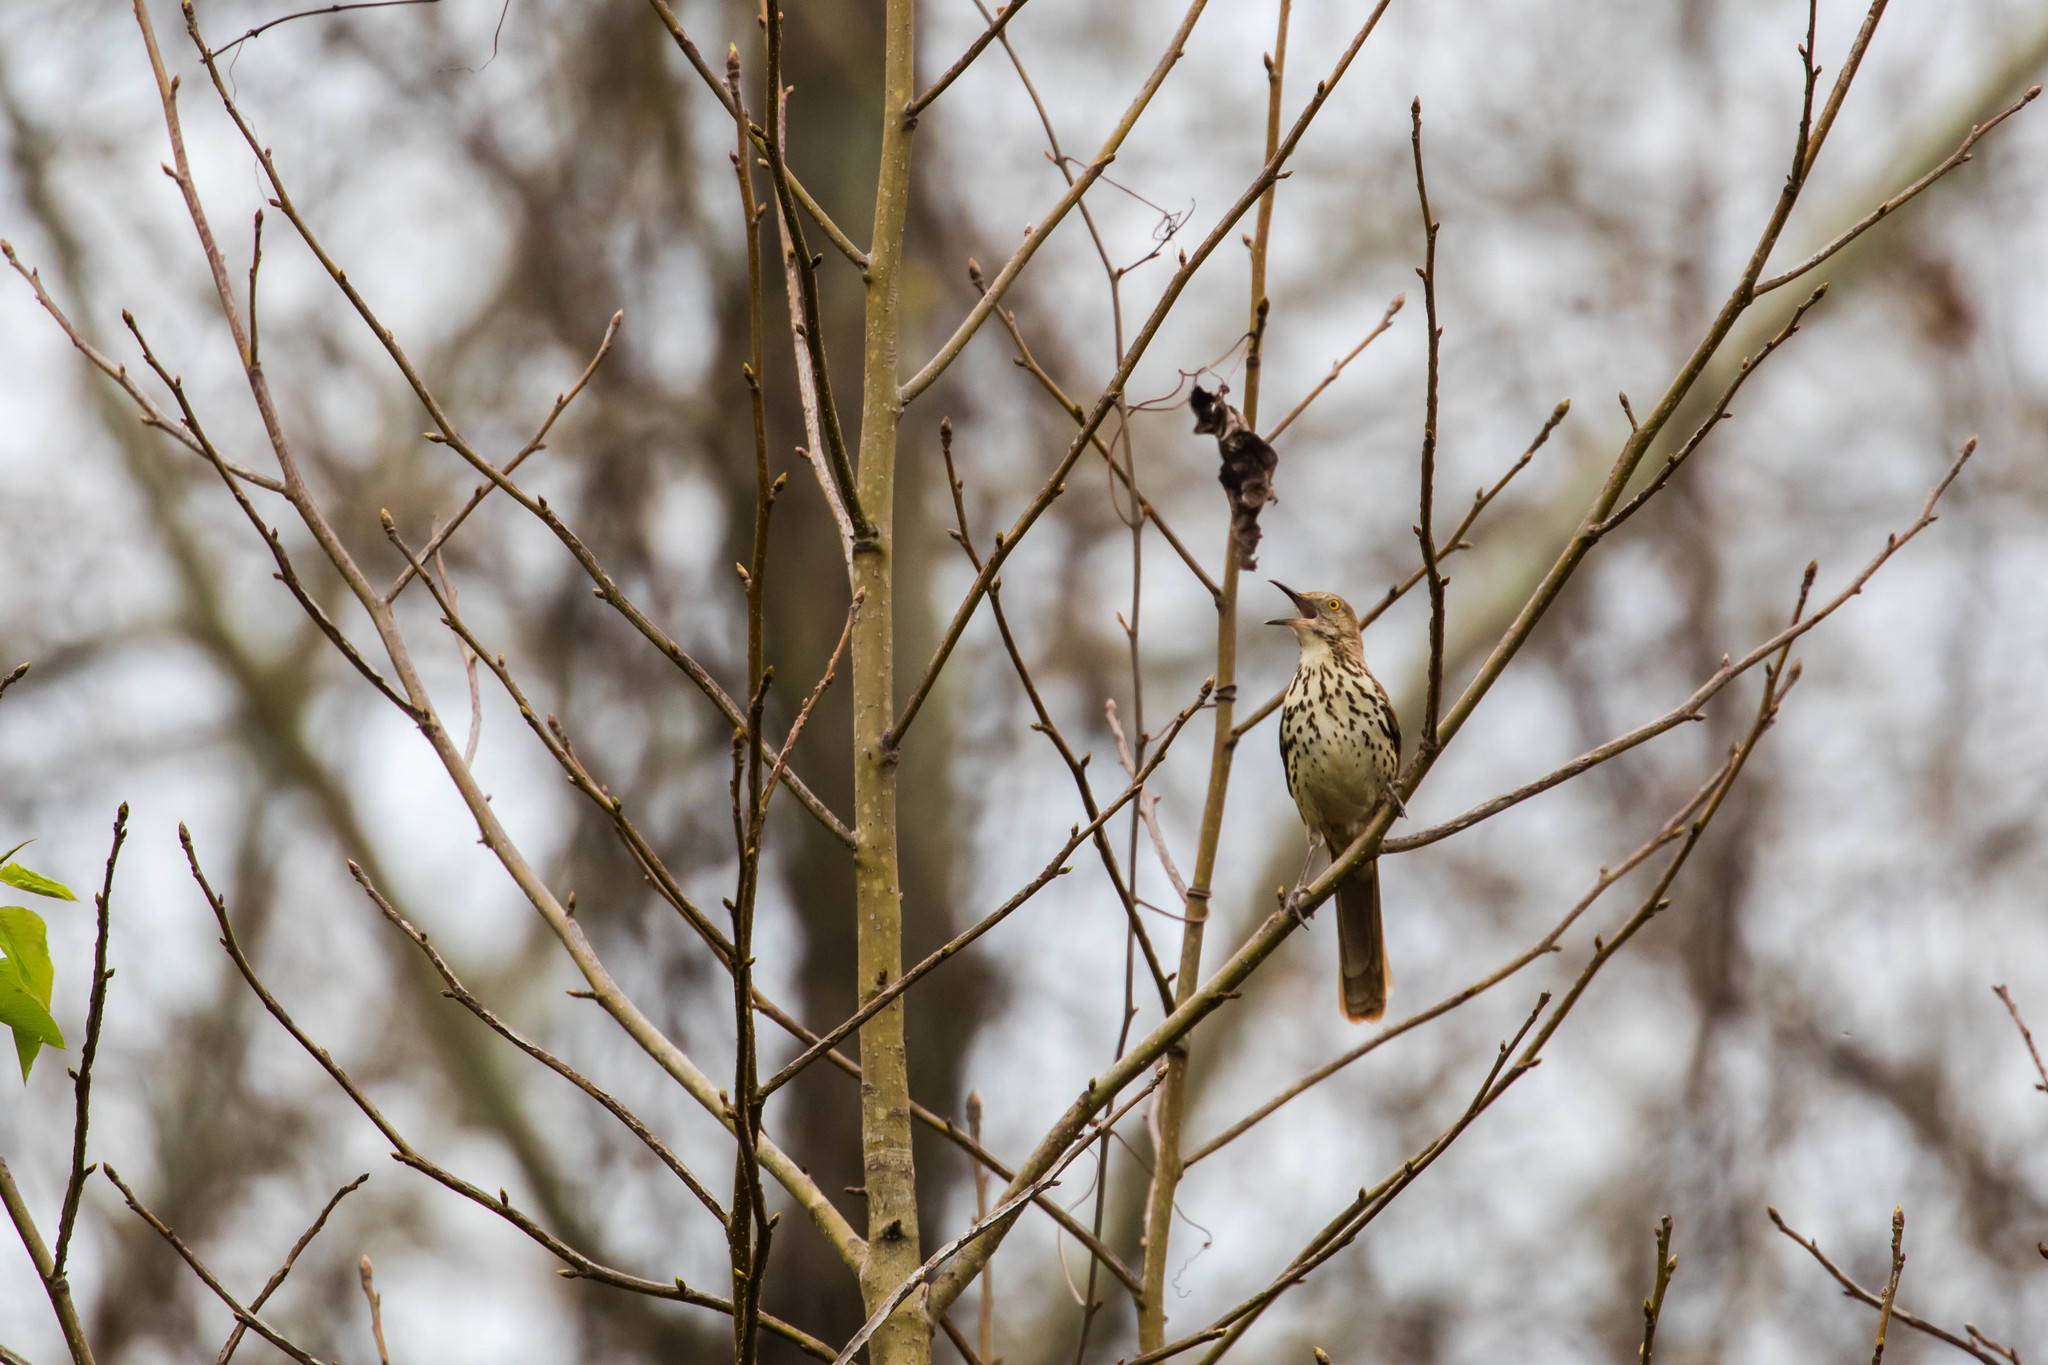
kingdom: Animalia
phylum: Chordata
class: Aves
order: Passeriformes
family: Mimidae
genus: Toxostoma
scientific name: Toxostoma rufum
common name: Brown thrasher
